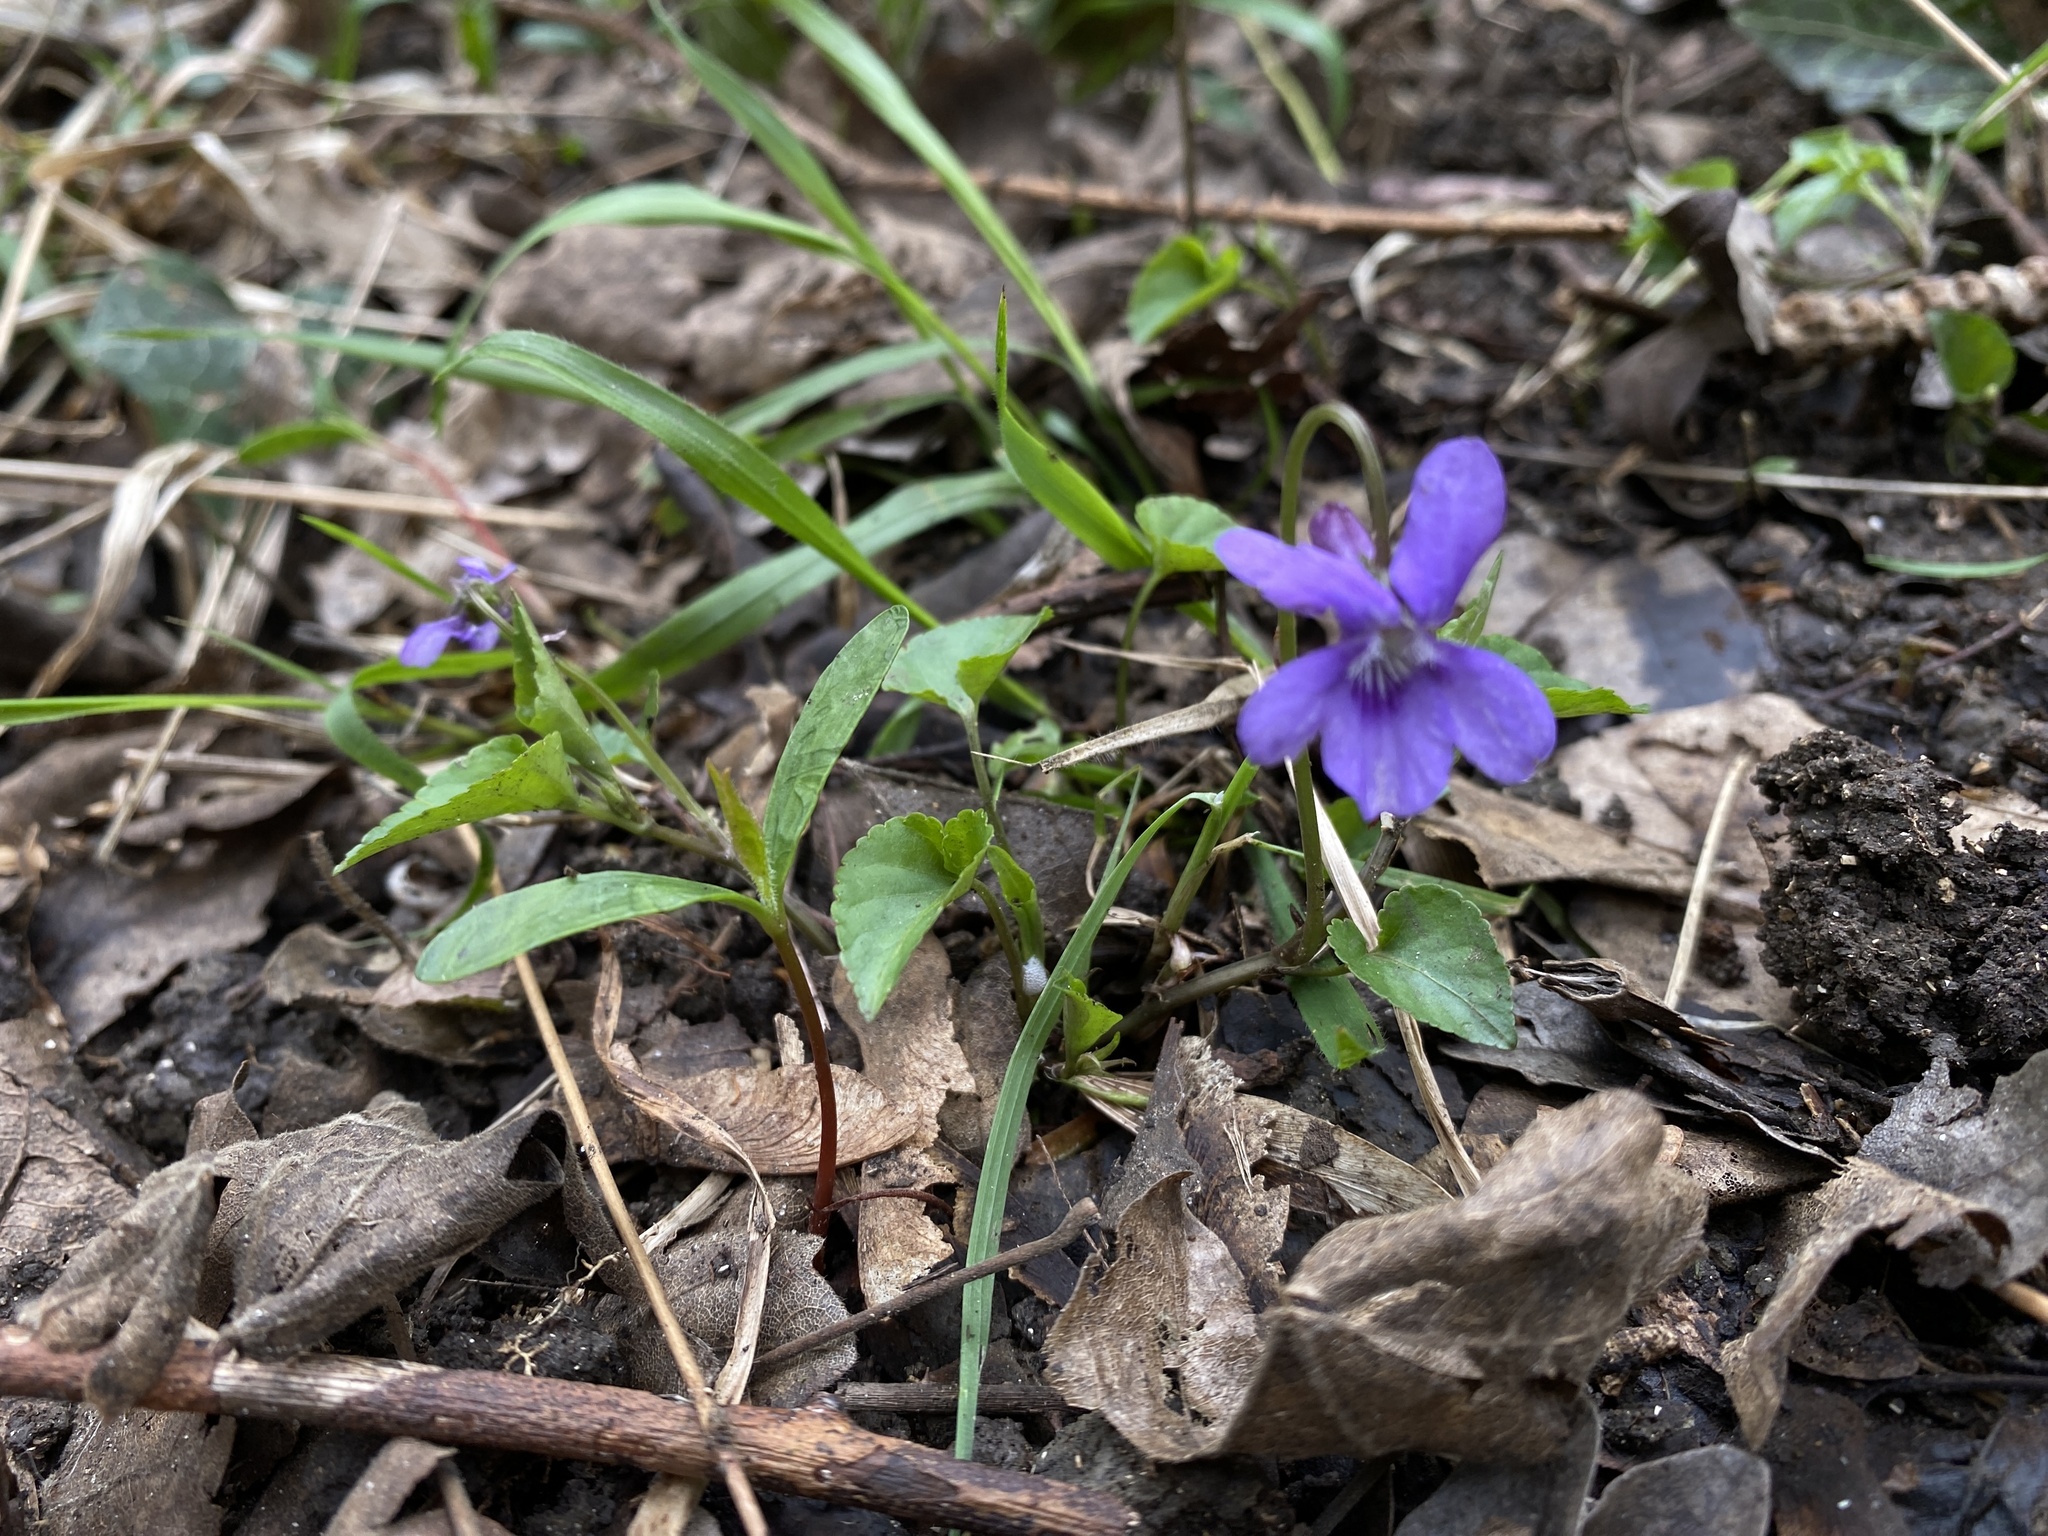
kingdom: Plantae
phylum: Tracheophyta
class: Magnoliopsida
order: Malpighiales
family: Violaceae
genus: Viola
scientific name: Viola riviniana
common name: Common dog-violet
